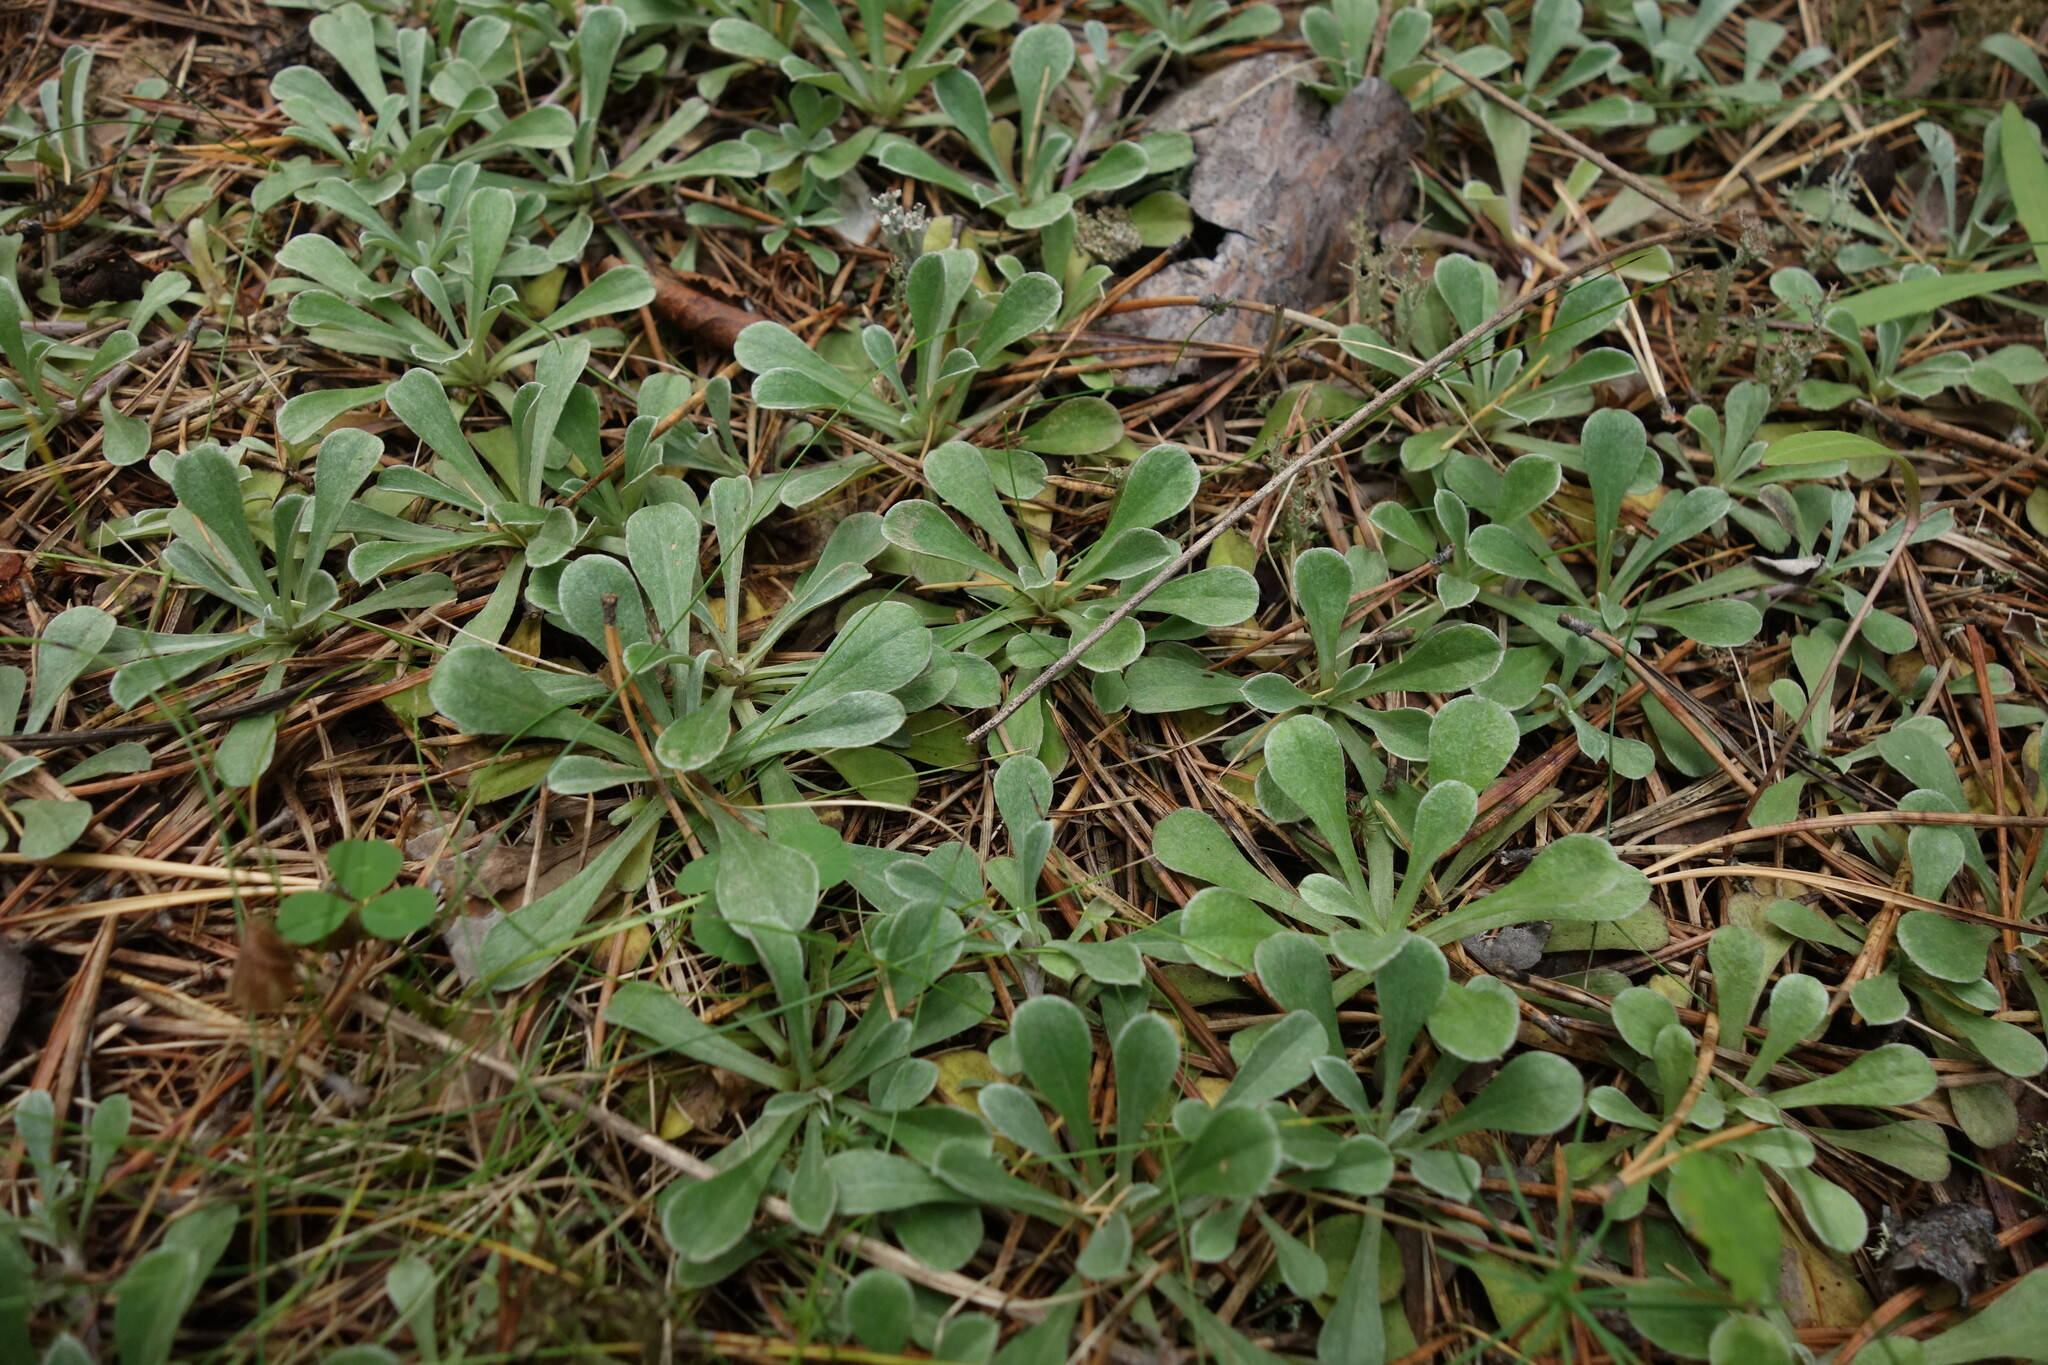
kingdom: Plantae
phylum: Tracheophyta
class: Magnoliopsida
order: Asterales
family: Asteraceae
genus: Antennaria
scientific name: Antennaria dioica
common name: Mountain everlasting
